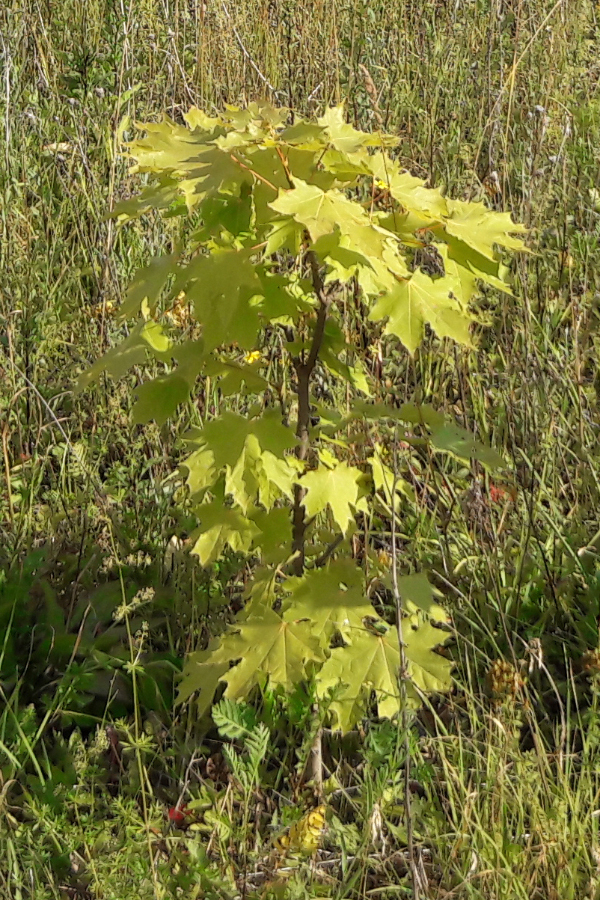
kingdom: Plantae
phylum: Tracheophyta
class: Magnoliopsida
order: Sapindales
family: Sapindaceae
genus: Acer
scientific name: Acer platanoides
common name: Norway maple
